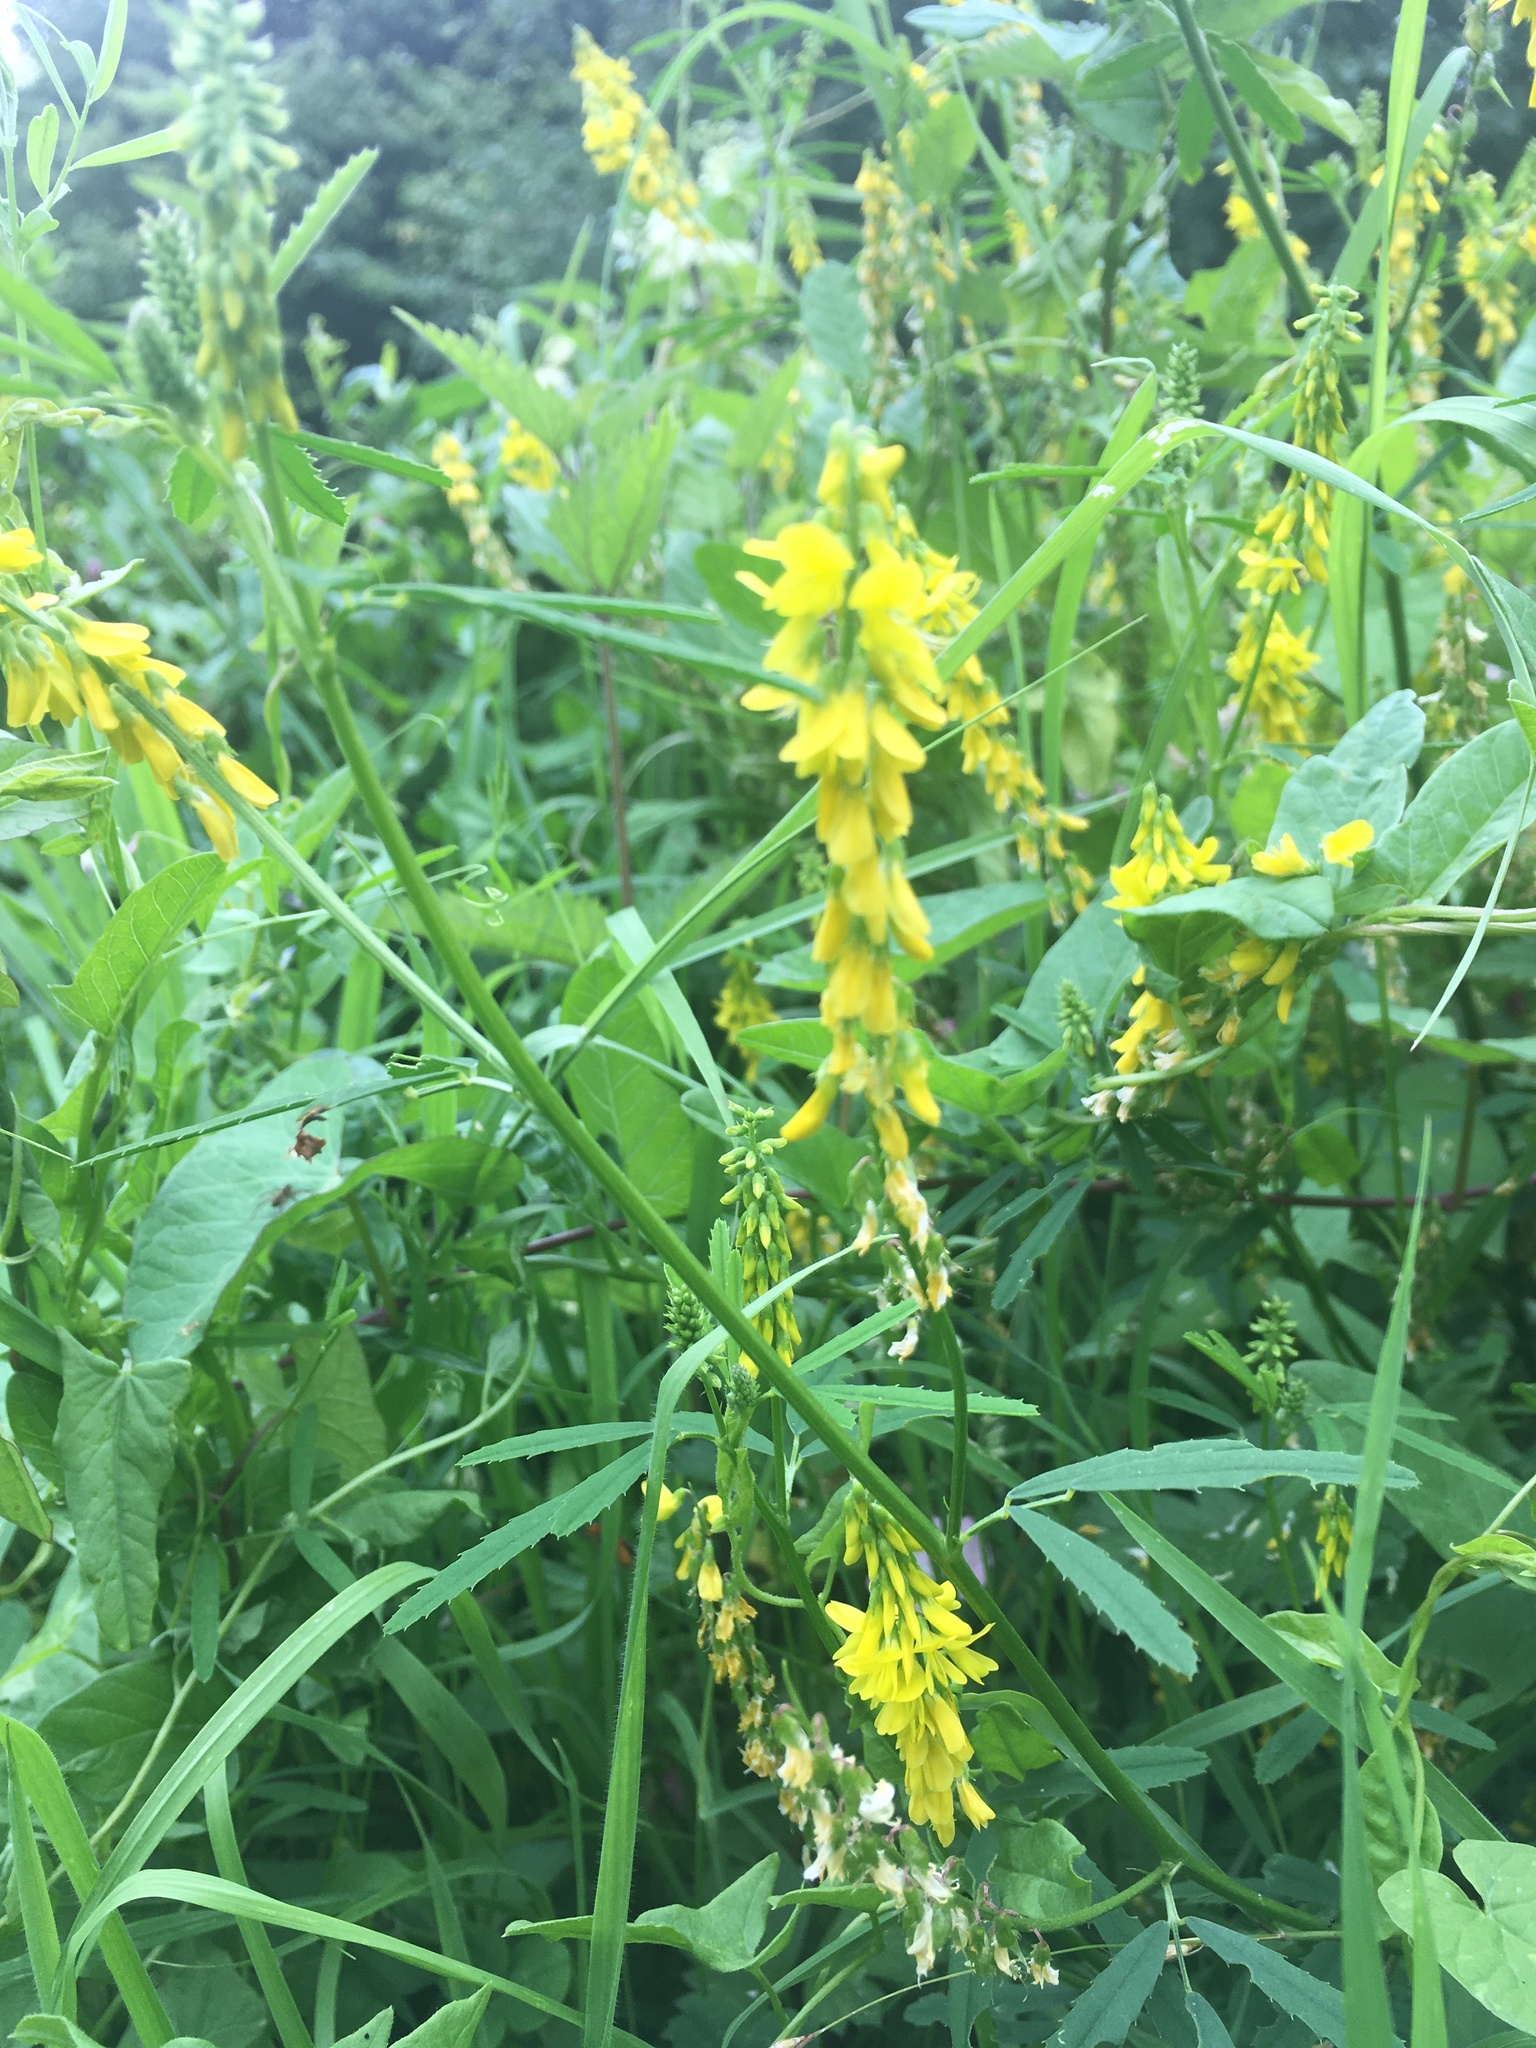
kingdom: Plantae
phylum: Tracheophyta
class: Magnoliopsida
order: Fabales
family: Fabaceae
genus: Melilotus
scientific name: Melilotus altissimus
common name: Tall melilot
